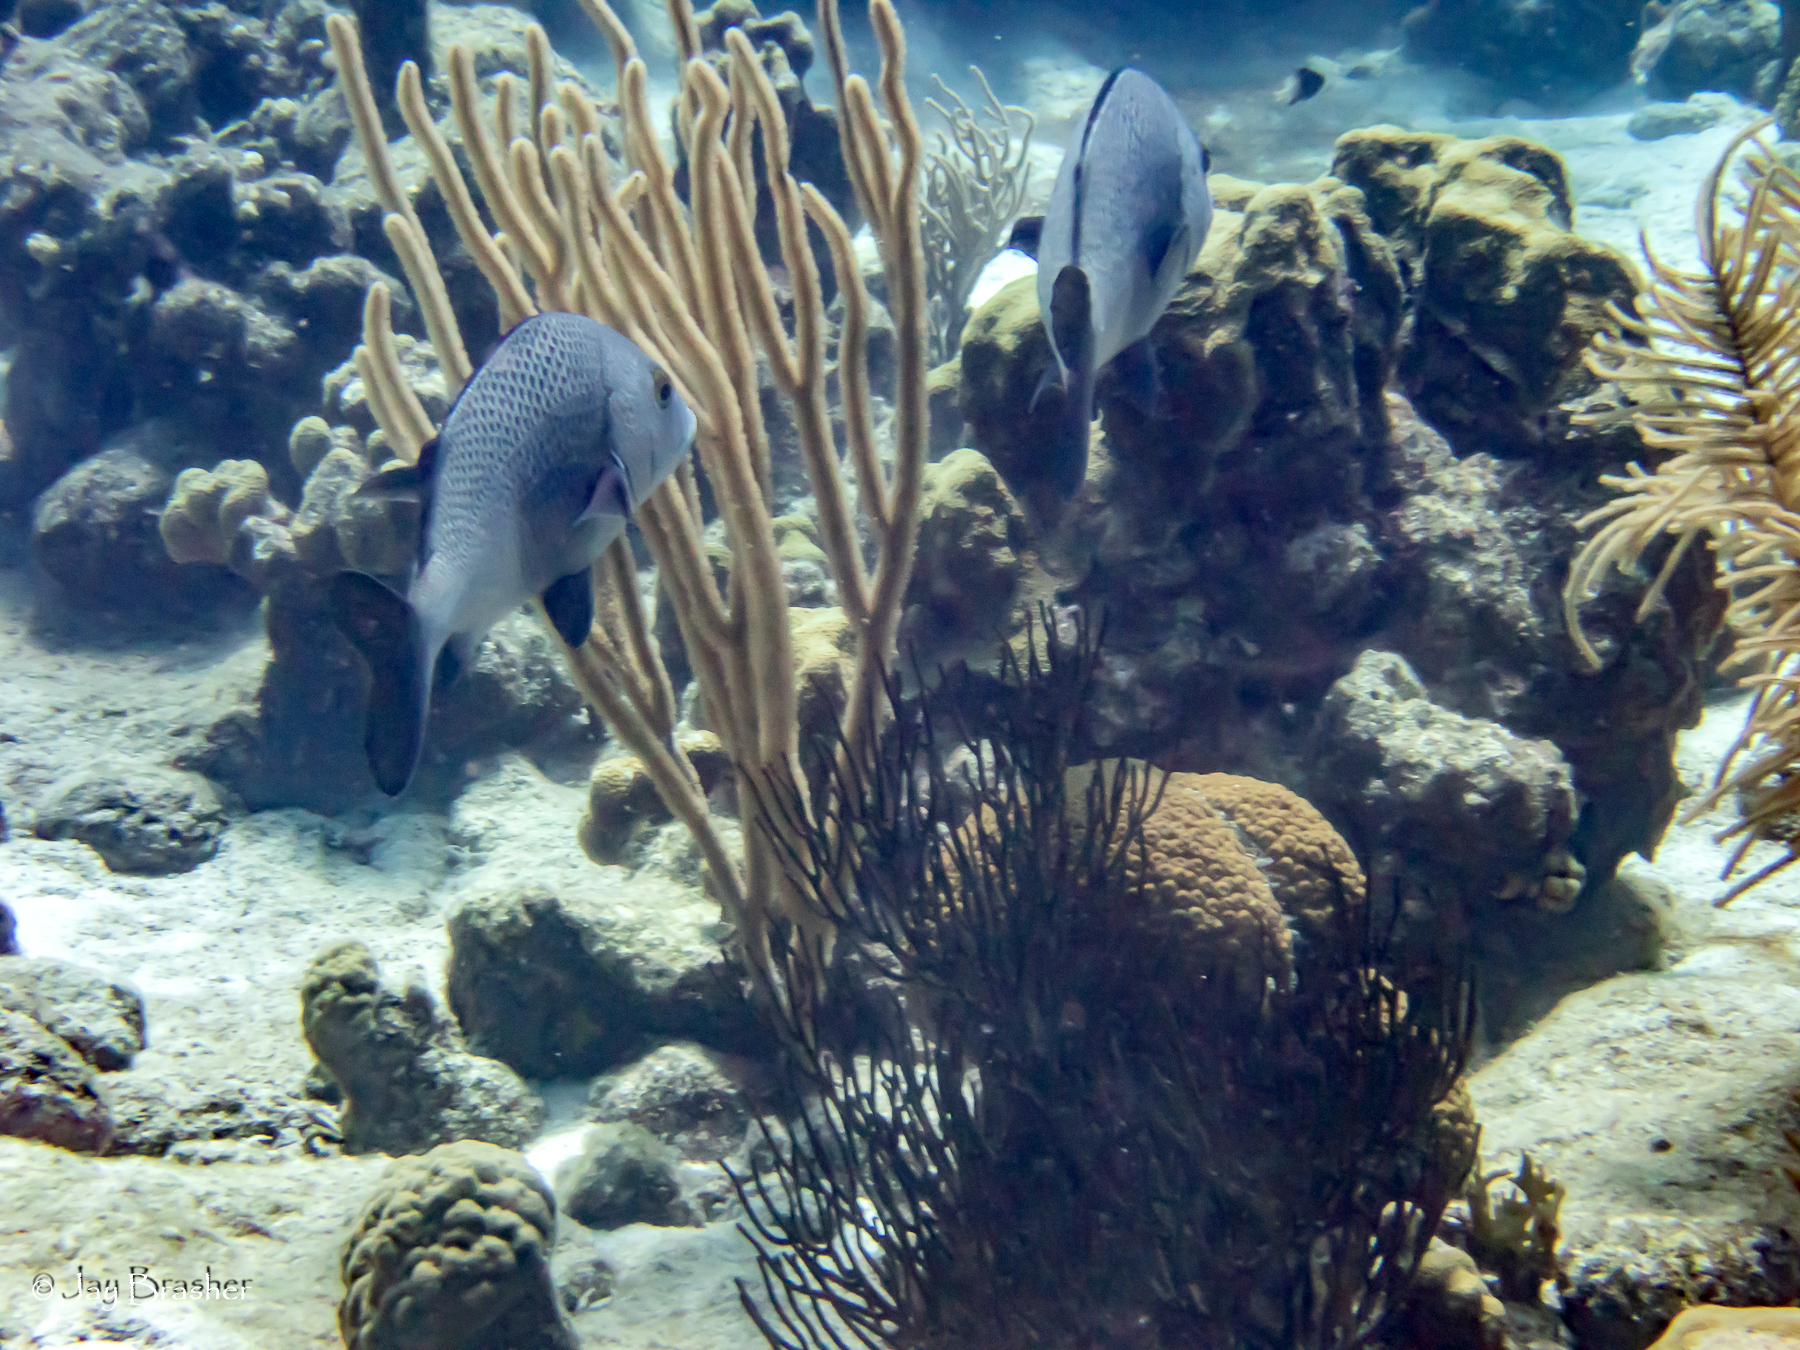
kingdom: Animalia
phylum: Cnidaria
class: Anthozoa
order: Scleractinia
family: Montastraeidae
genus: Montastraea
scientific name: Montastraea cavernosa
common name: Great star coral
